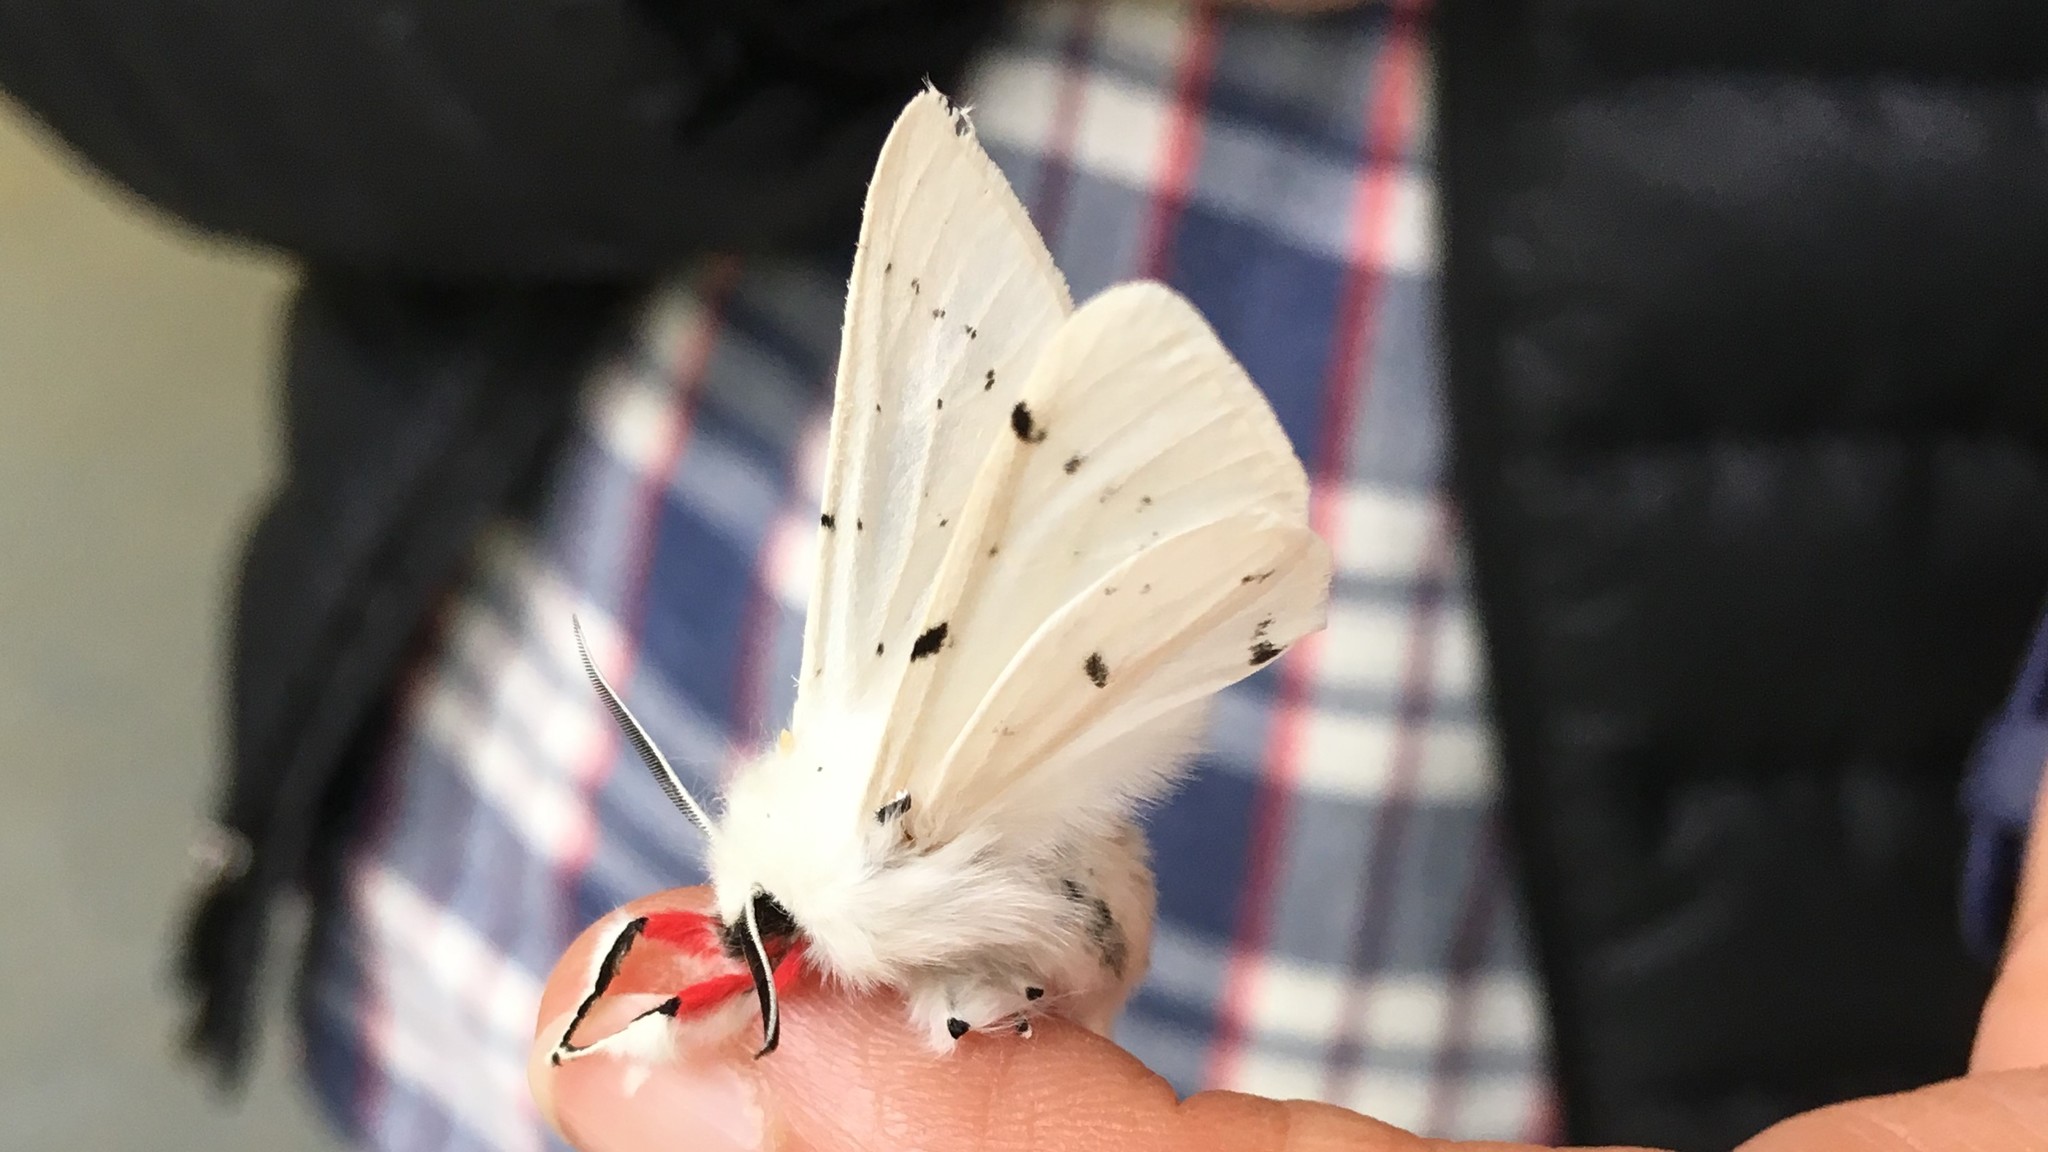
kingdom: Animalia
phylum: Arthropoda
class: Insecta
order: Lepidoptera
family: Erebidae
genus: Spilosoma
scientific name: Spilosoma vestalis
